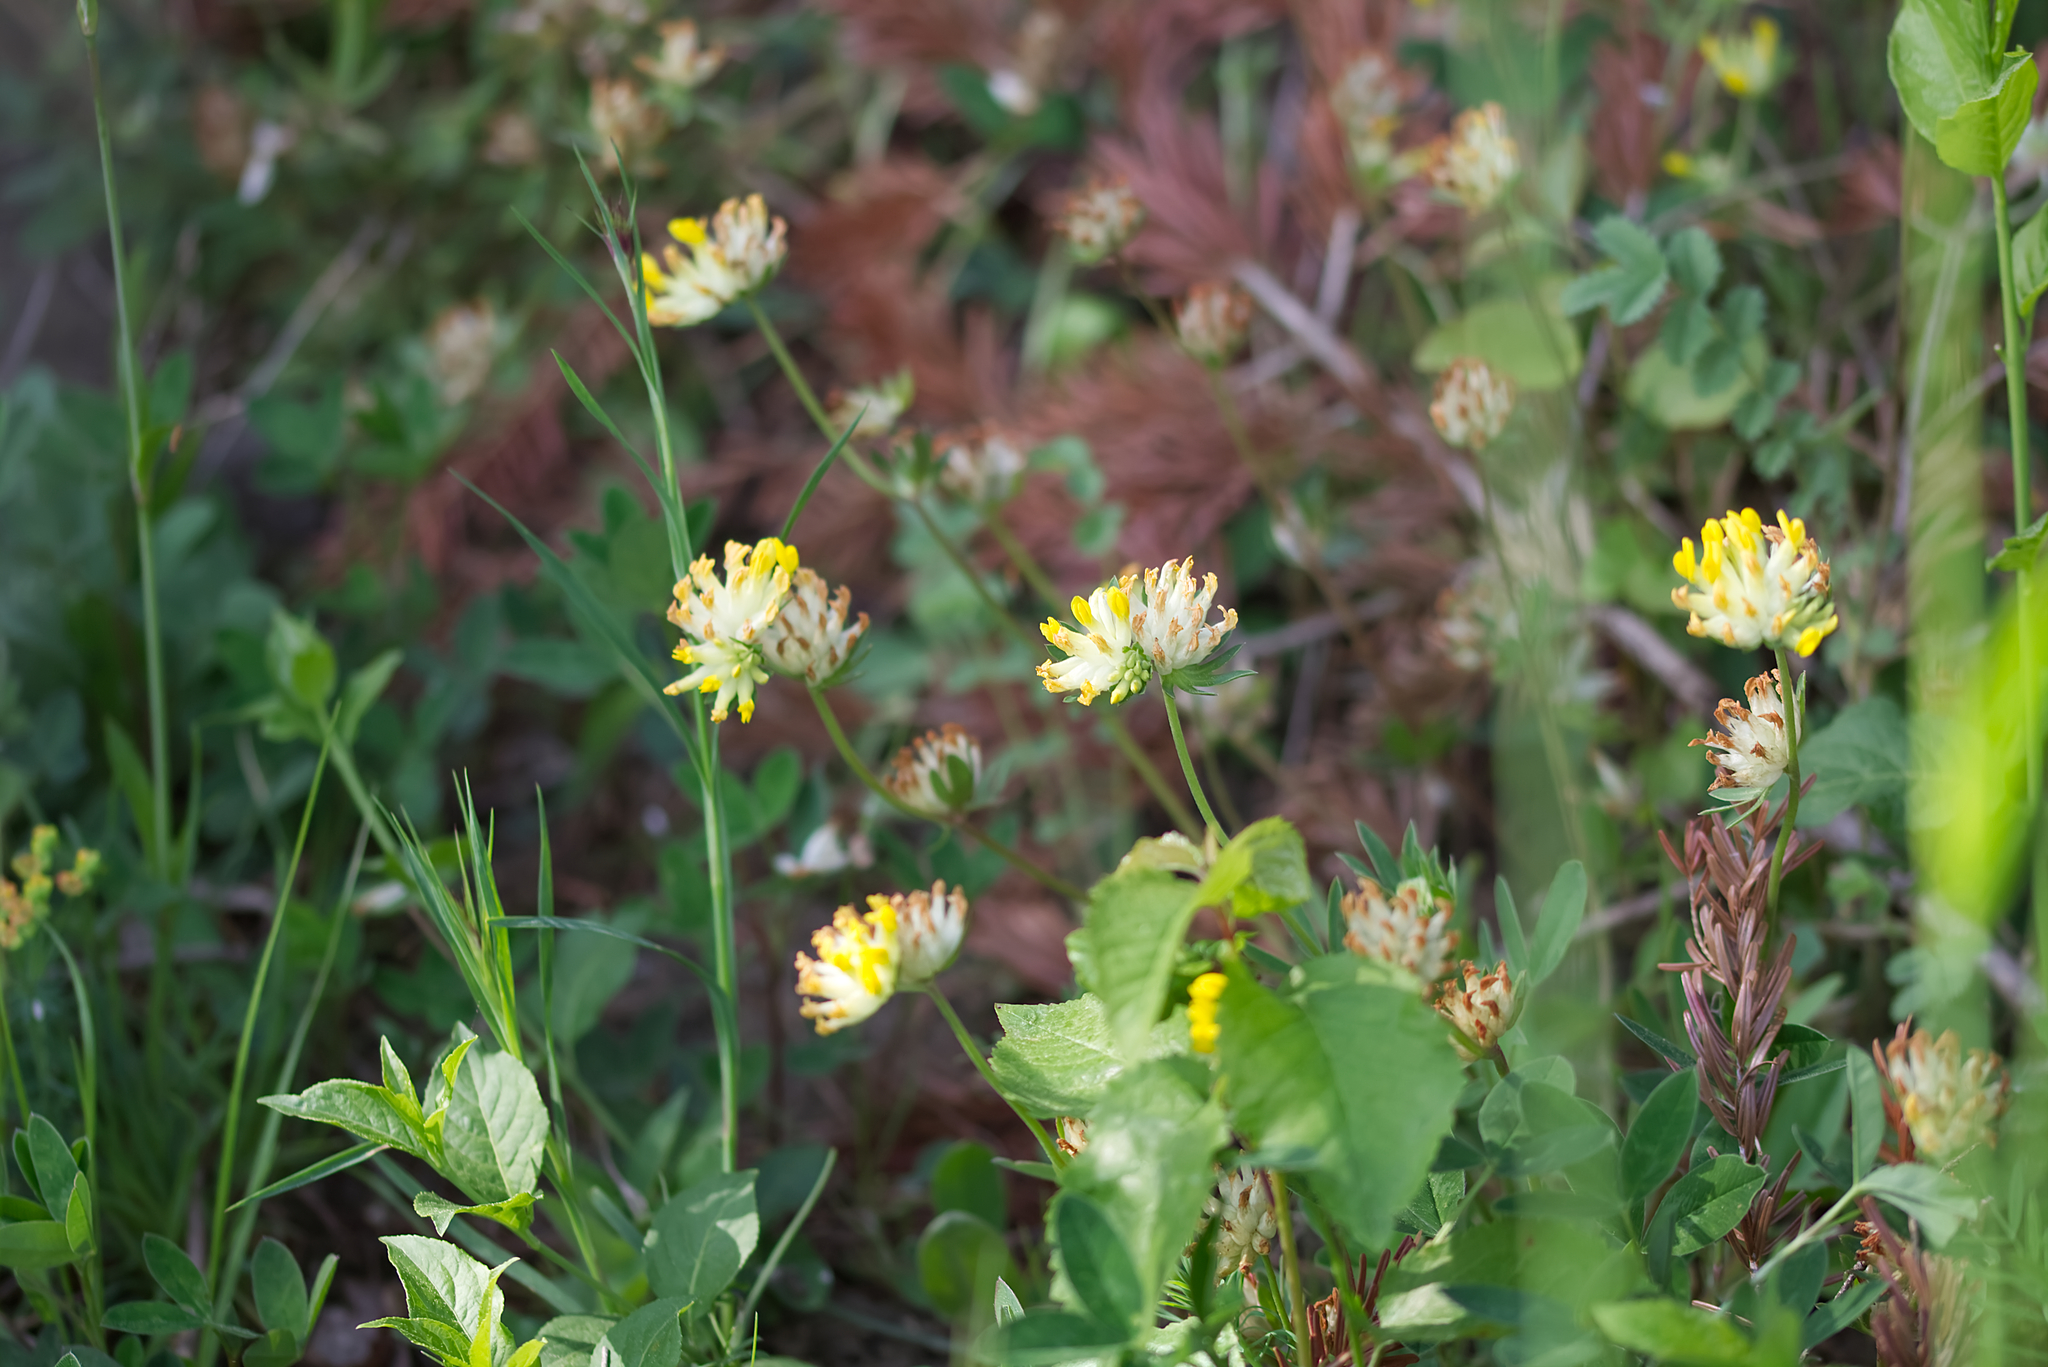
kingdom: Plantae
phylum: Tracheophyta
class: Magnoliopsida
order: Fabales
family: Fabaceae
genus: Anthyllis
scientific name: Anthyllis vulneraria
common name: Kidney vetch
